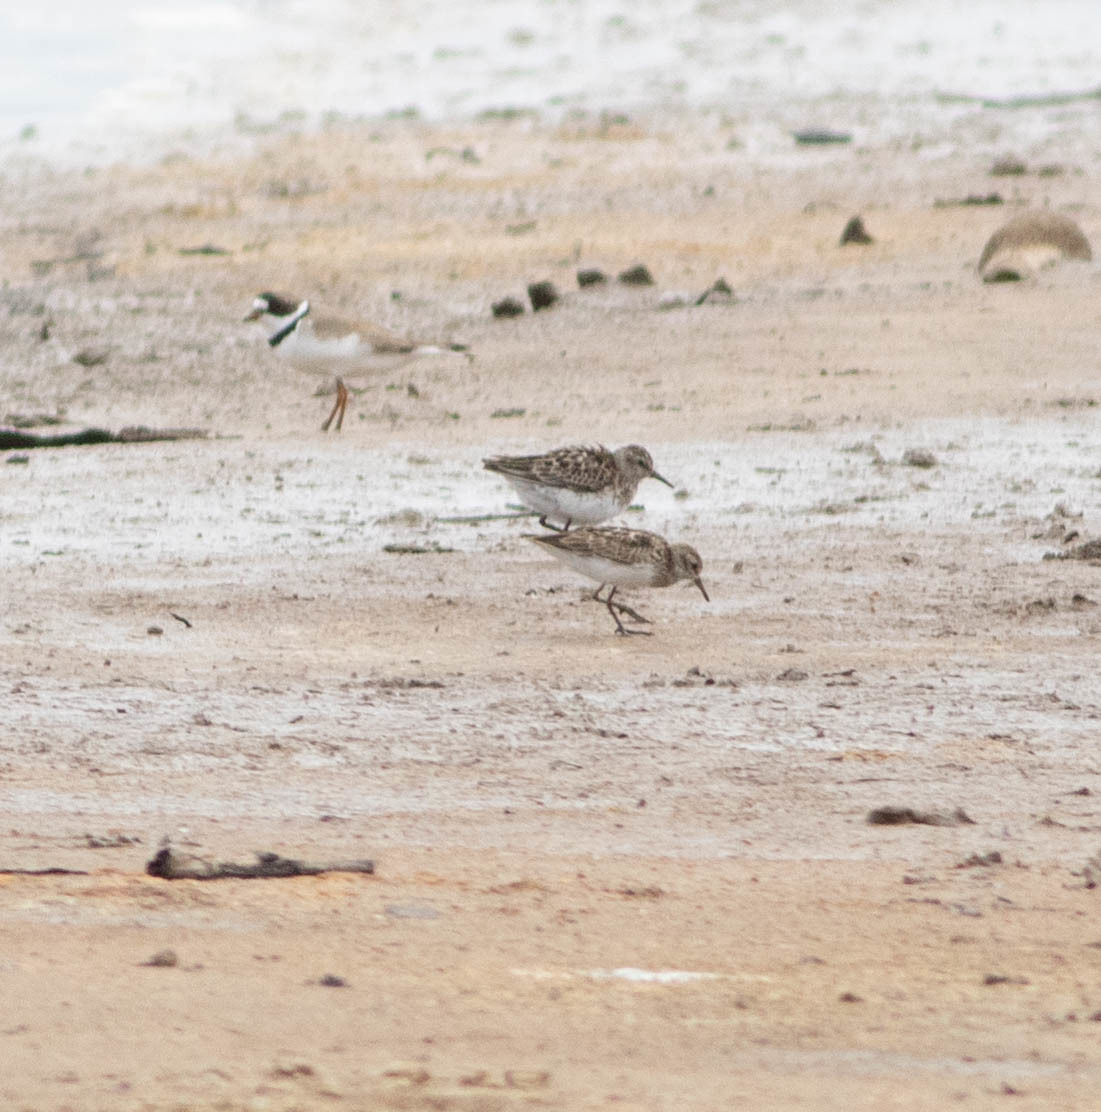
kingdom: Animalia
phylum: Chordata
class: Aves
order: Charadriiformes
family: Scolopacidae
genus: Calidris
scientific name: Calidris minutilla
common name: Least sandpiper
